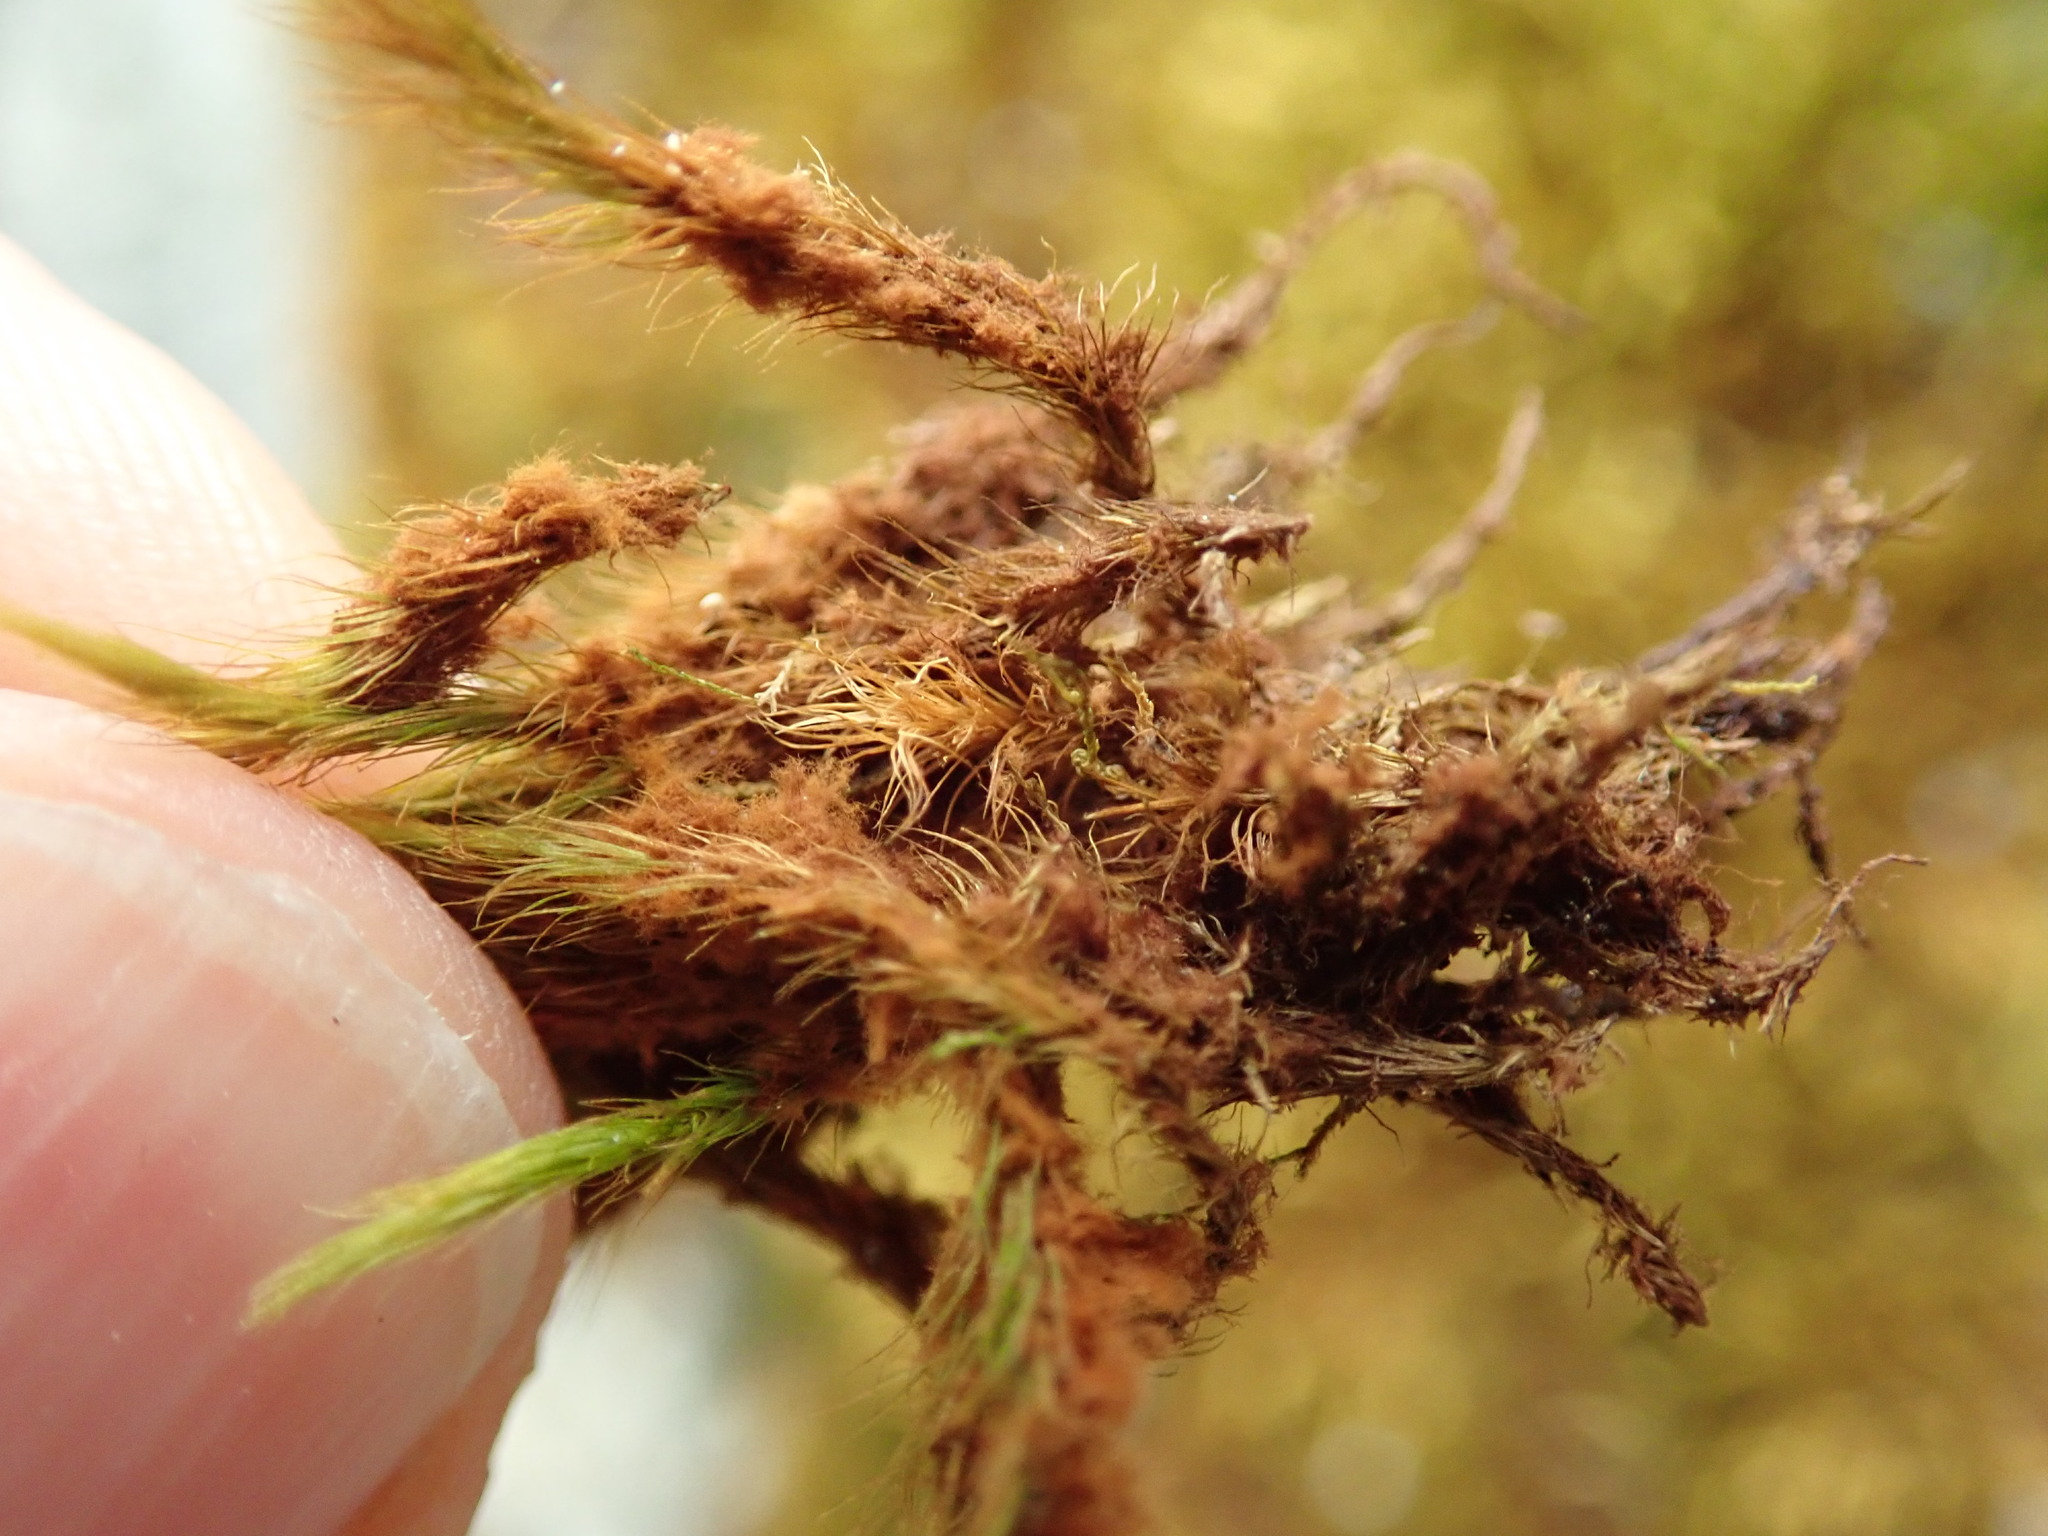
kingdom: Plantae
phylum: Bryophyta
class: Bryopsida
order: Bartramiales
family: Bartramiaceae
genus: Anacolia
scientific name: Anacolia menziesii
